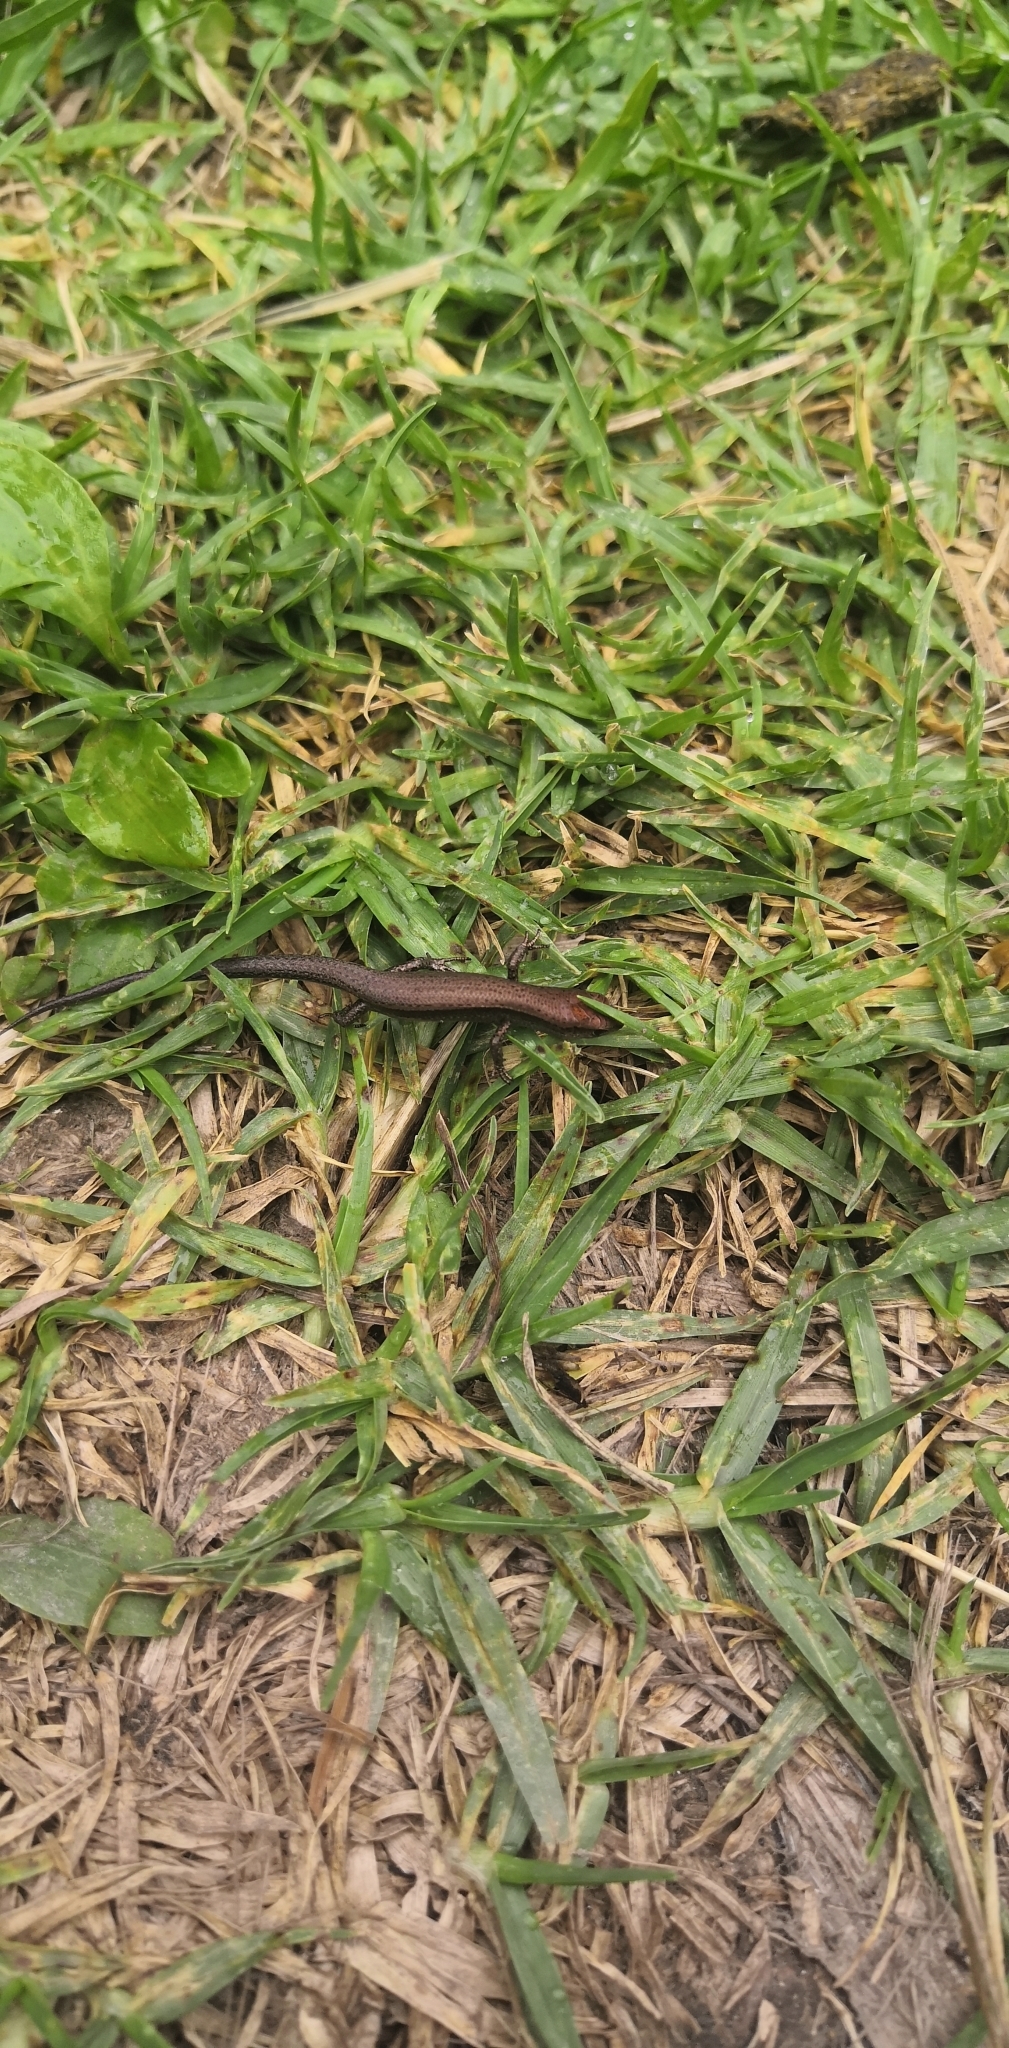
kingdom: Animalia
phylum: Chordata
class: Squamata
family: Scincidae
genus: Lampropholis
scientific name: Lampropholis delicata
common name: Plague skink
